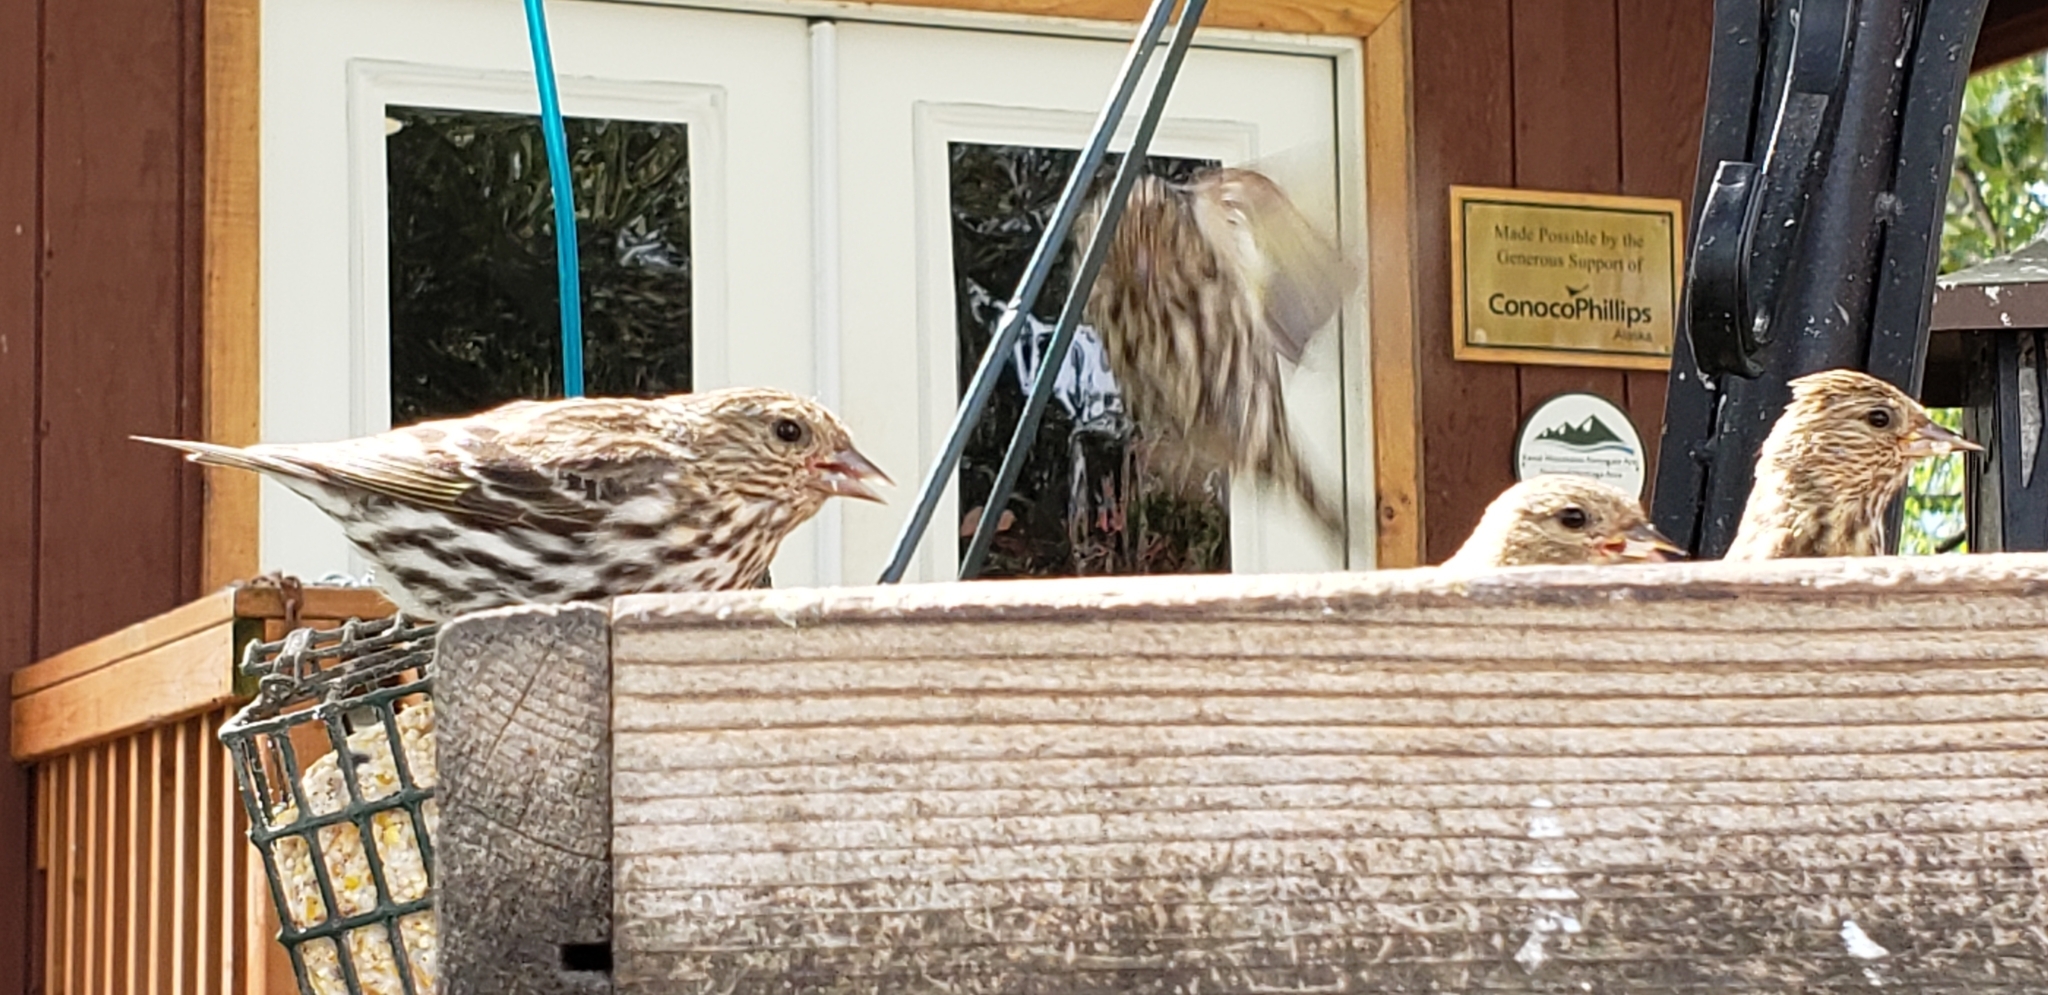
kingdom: Animalia
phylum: Chordata
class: Aves
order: Passeriformes
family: Fringillidae
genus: Spinus
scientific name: Spinus pinus
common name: Pine siskin
